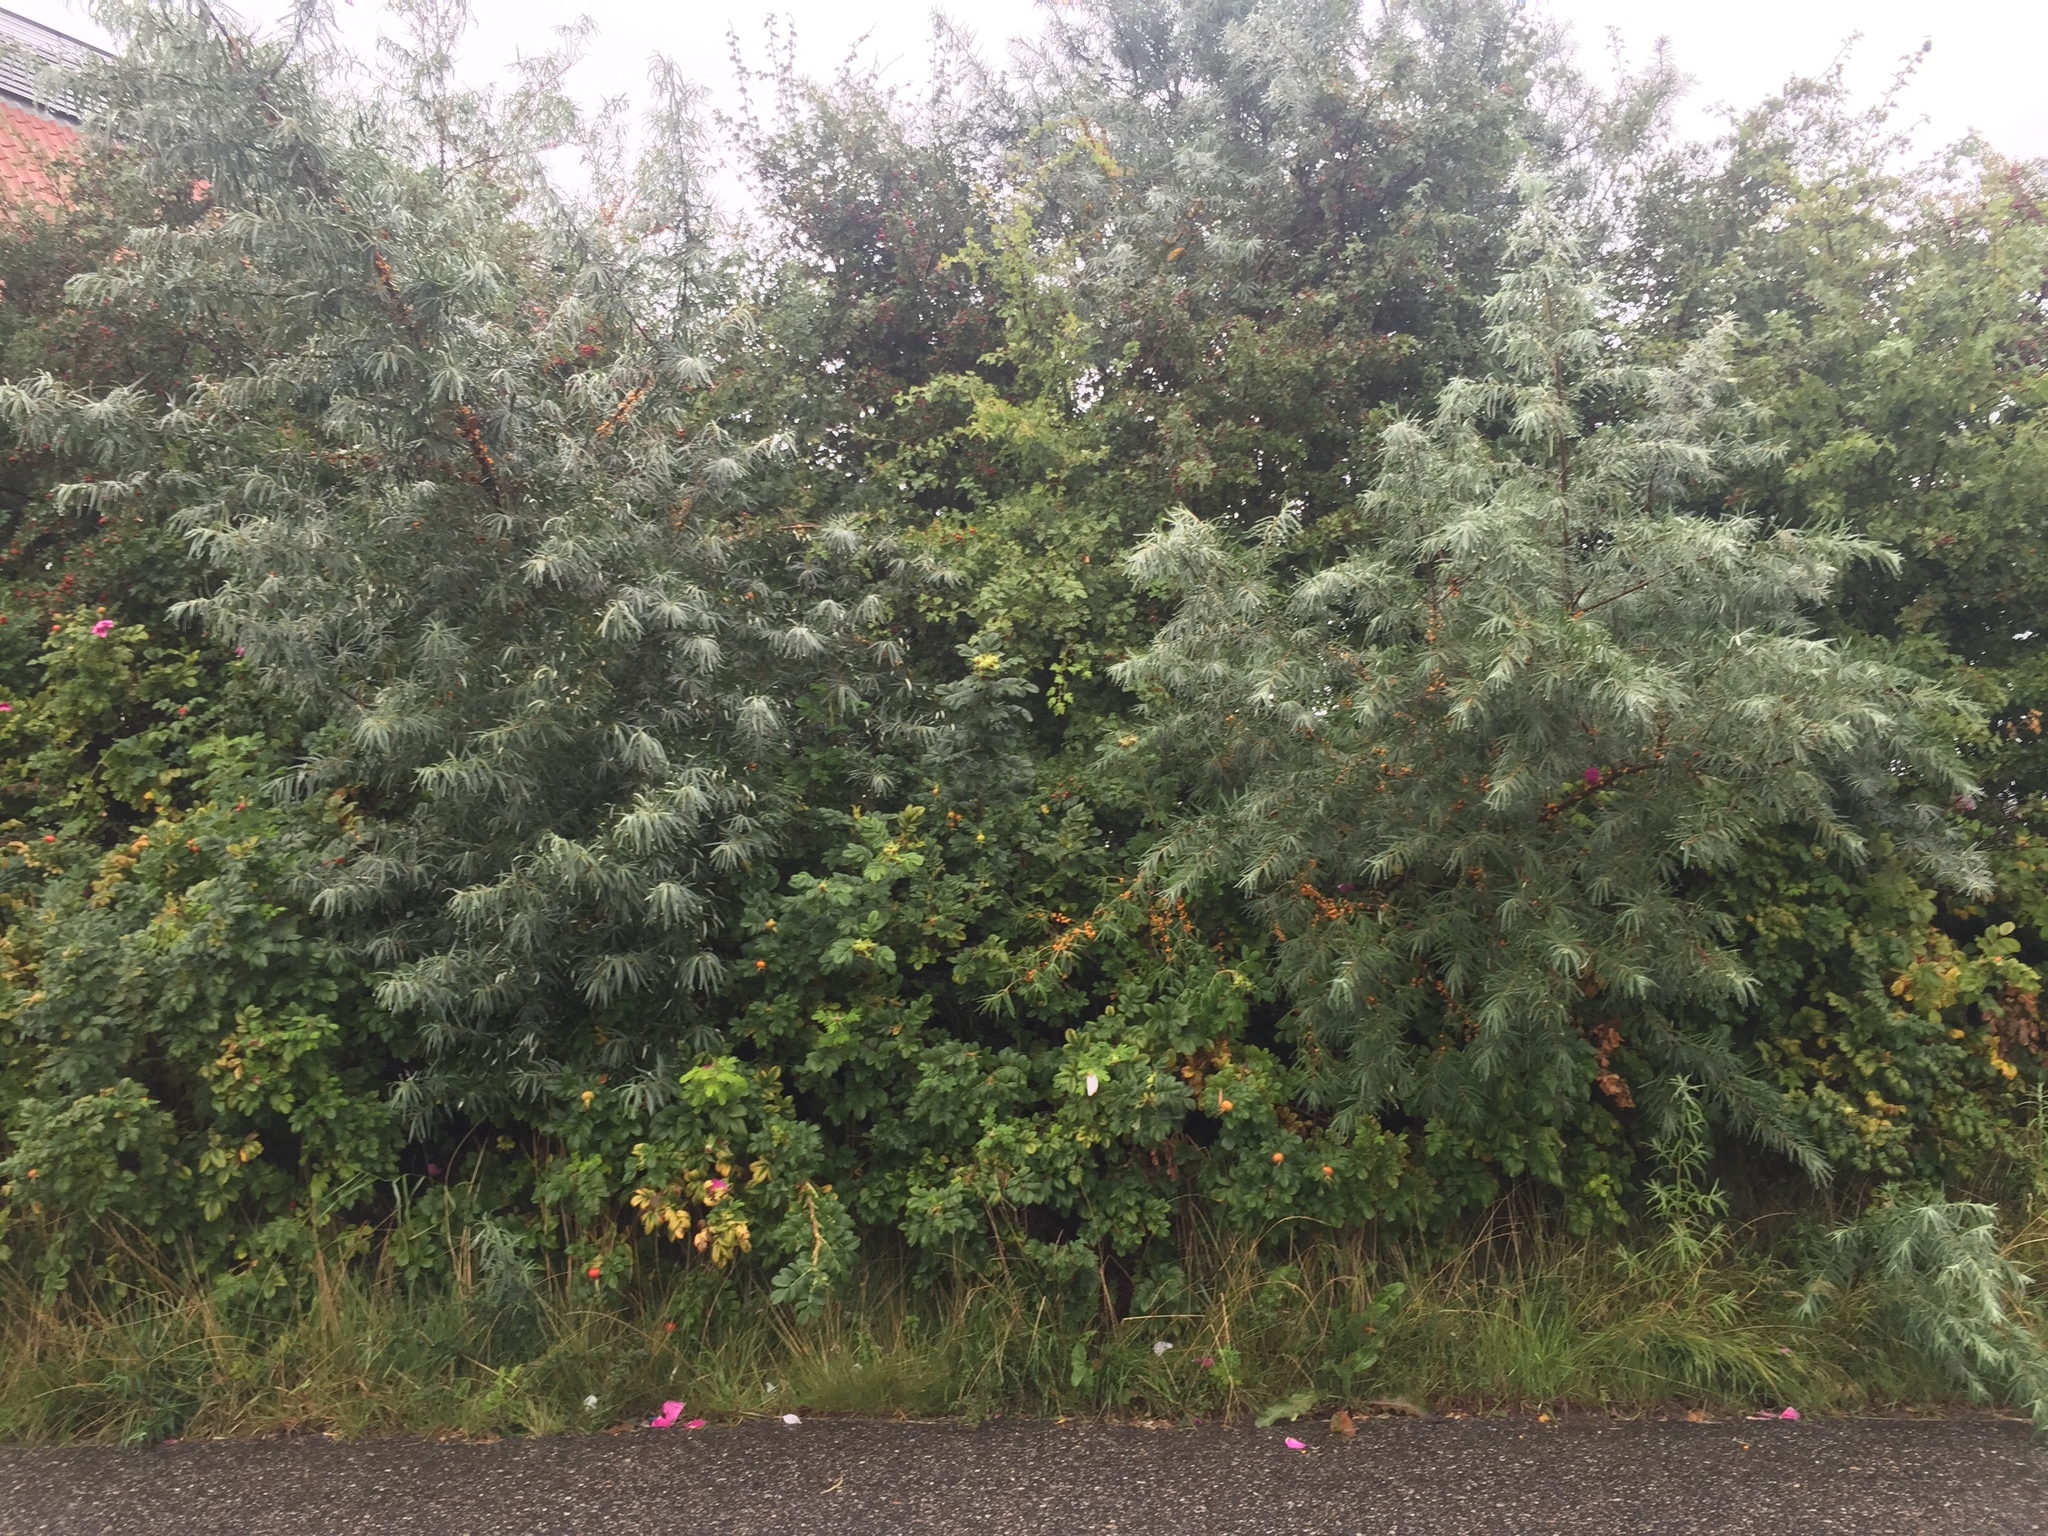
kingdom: Plantae
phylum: Tracheophyta
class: Magnoliopsida
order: Rosales
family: Elaeagnaceae
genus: Hippophae
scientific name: Hippophae rhamnoides
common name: Sea-buckthorn
